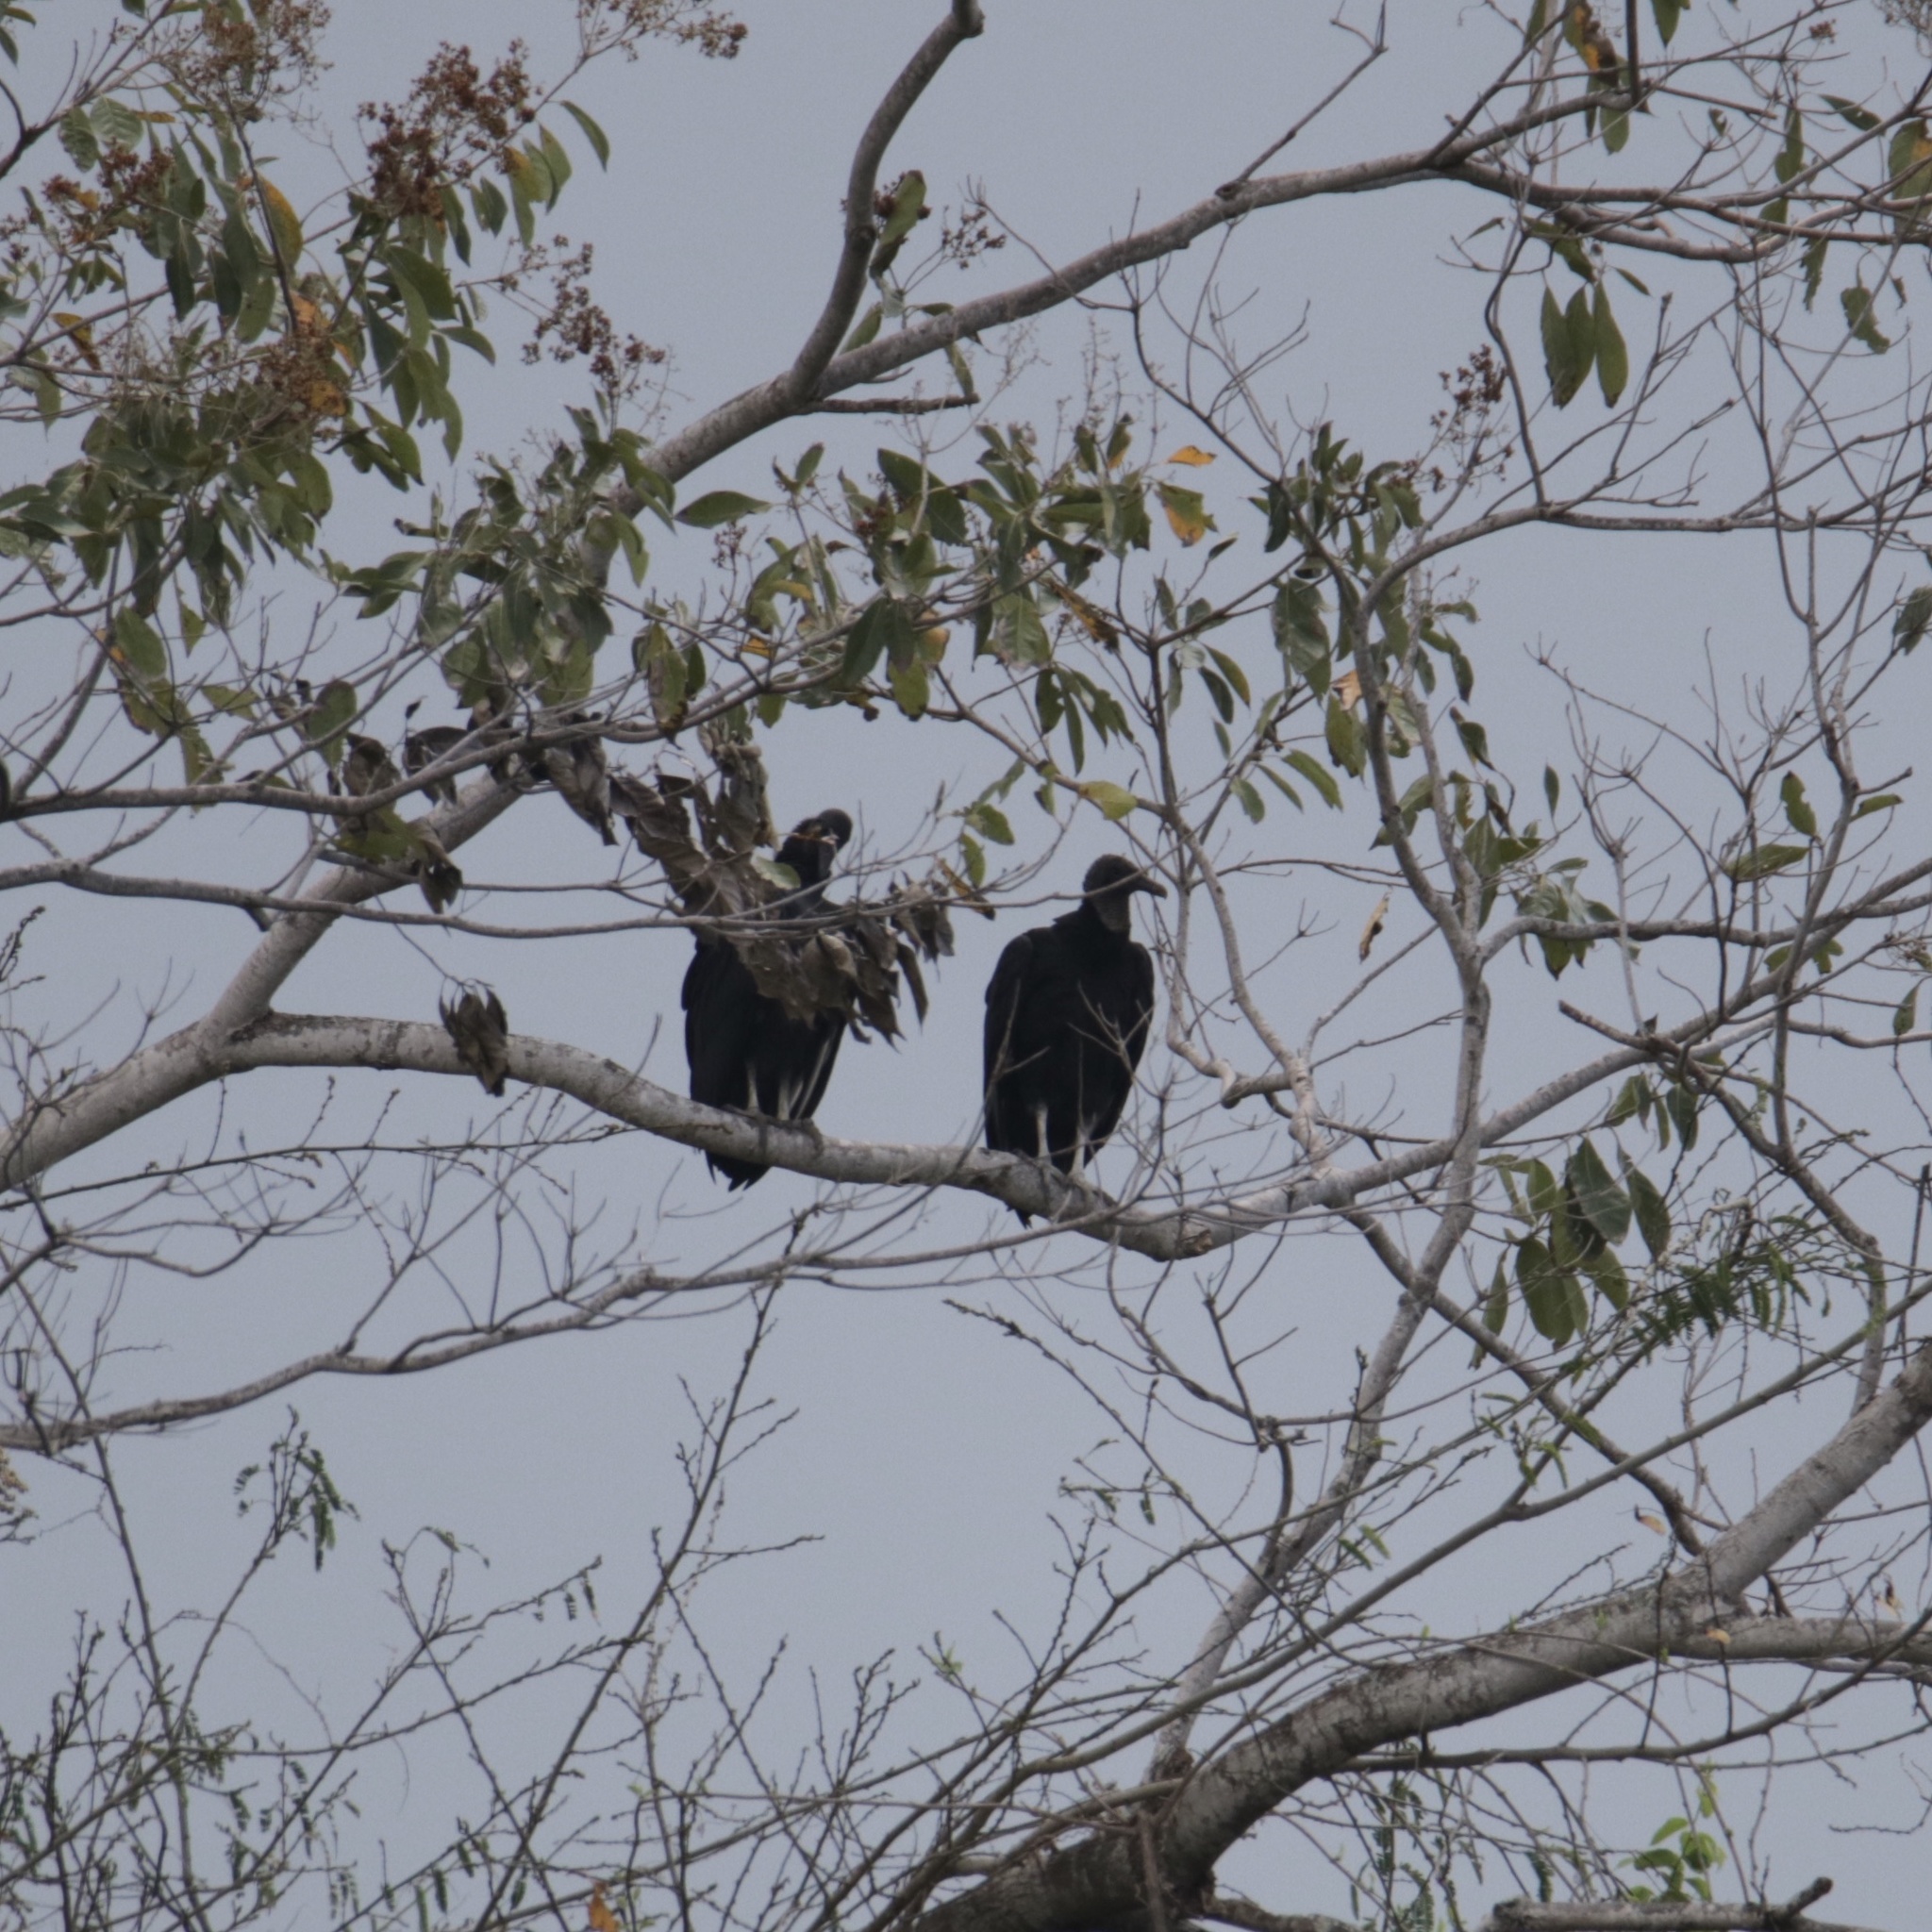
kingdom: Animalia
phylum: Chordata
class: Aves
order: Accipitriformes
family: Cathartidae
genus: Coragyps
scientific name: Coragyps atratus
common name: Black vulture
